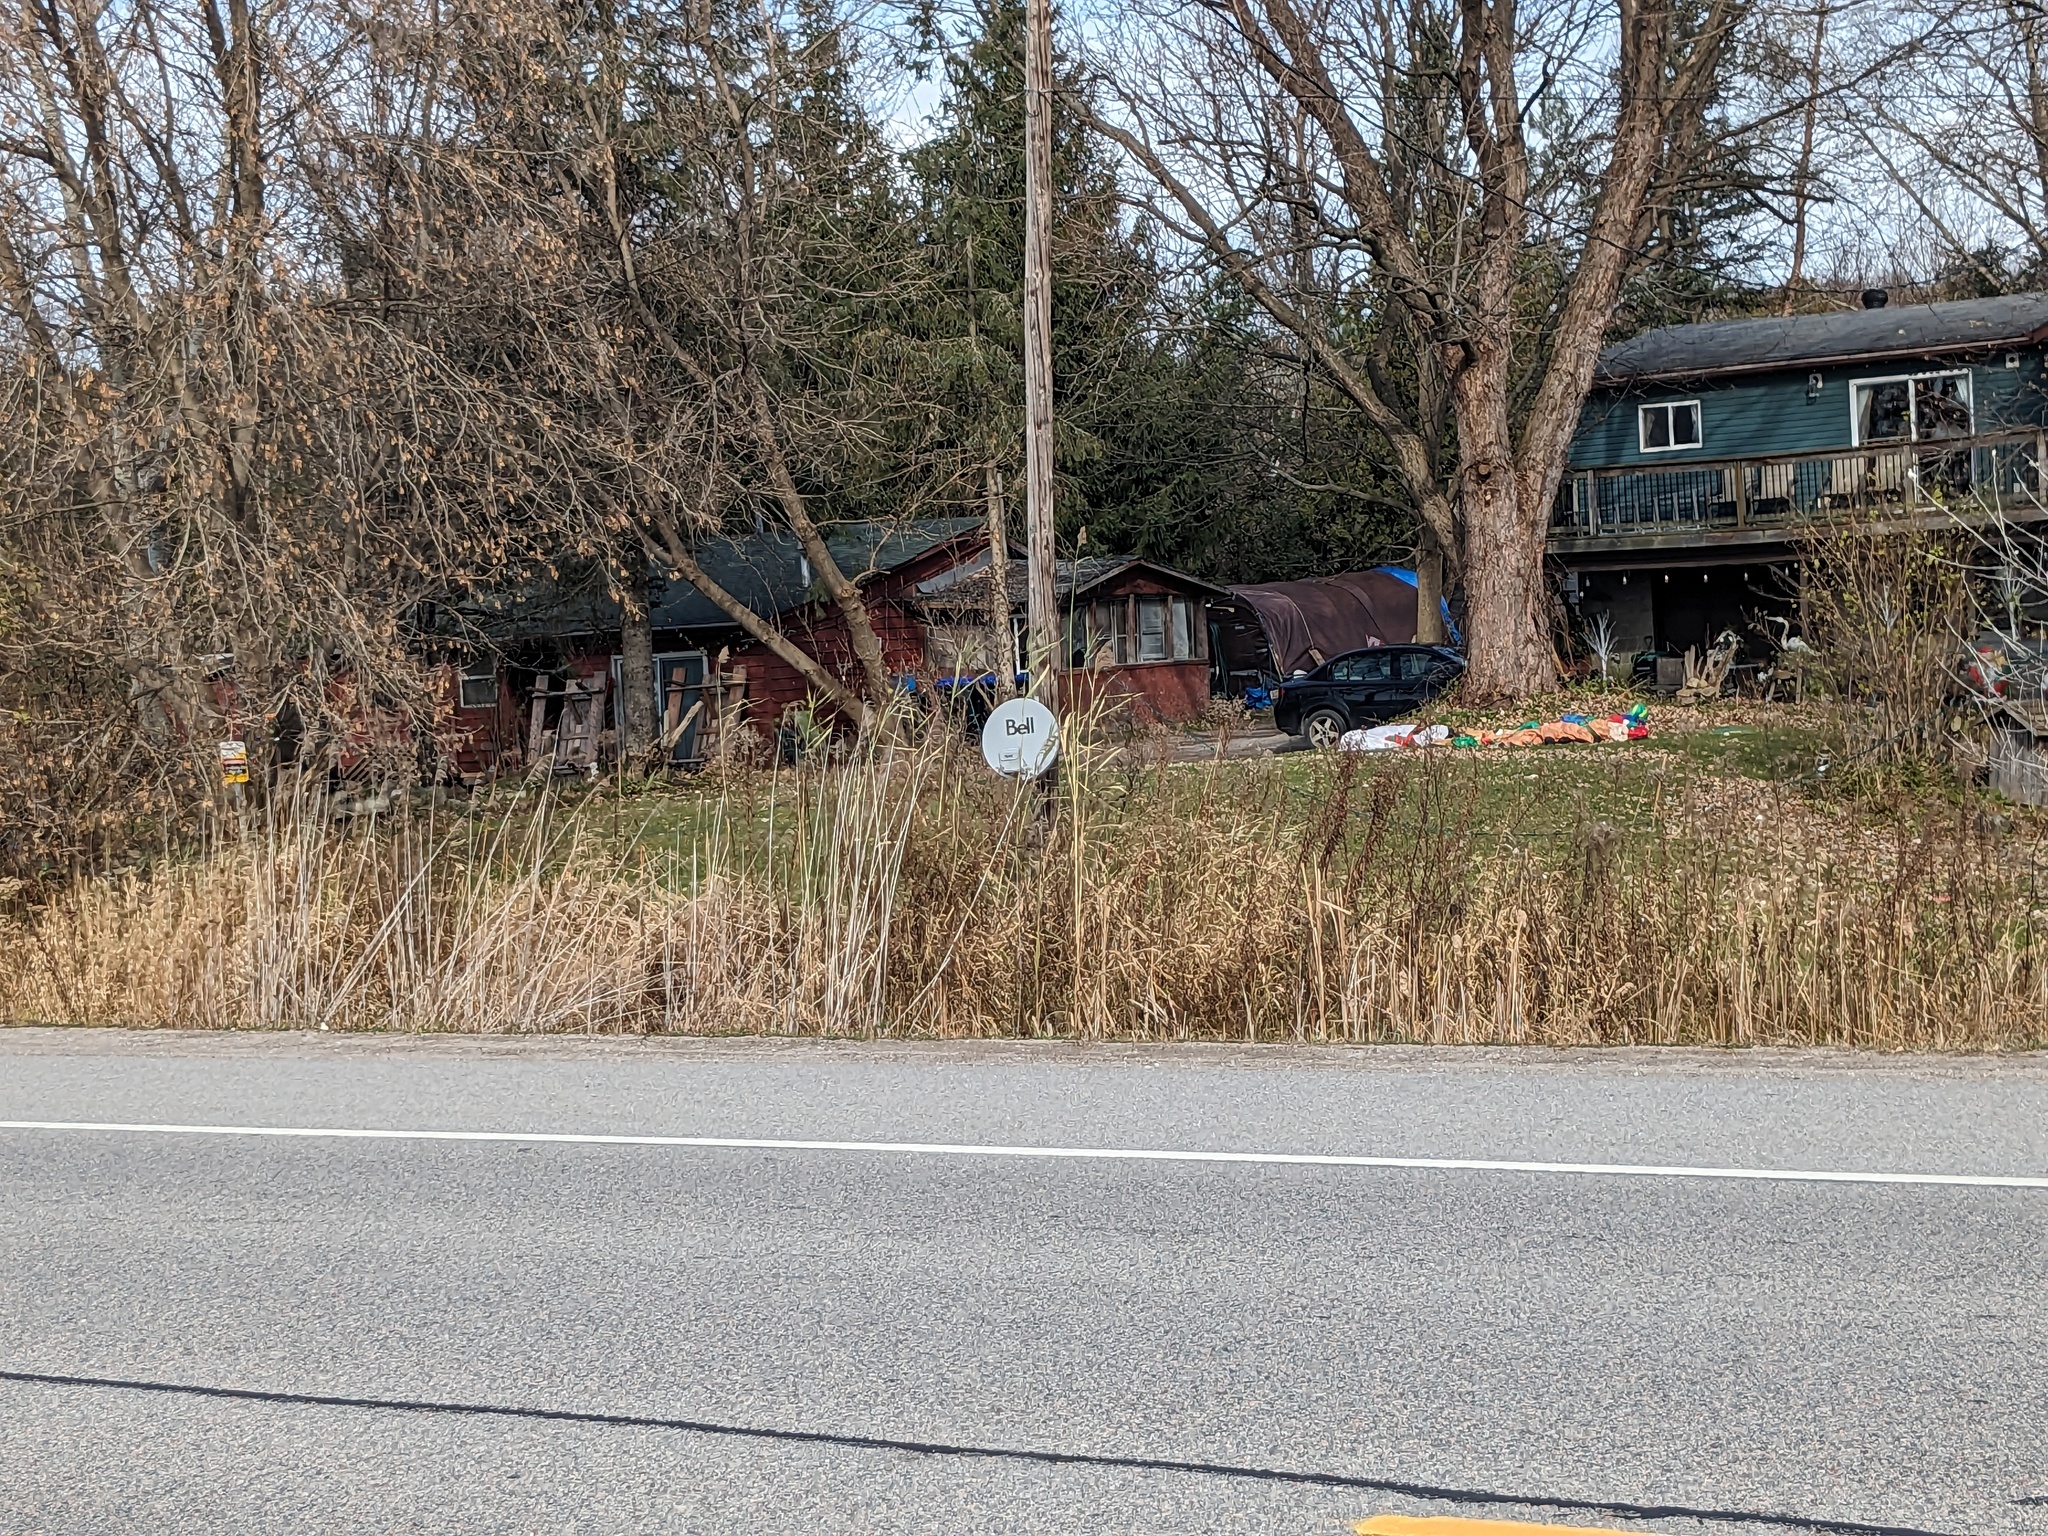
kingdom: Plantae
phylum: Tracheophyta
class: Liliopsida
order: Poales
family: Poaceae
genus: Phragmites
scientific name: Phragmites australis
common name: Common reed
